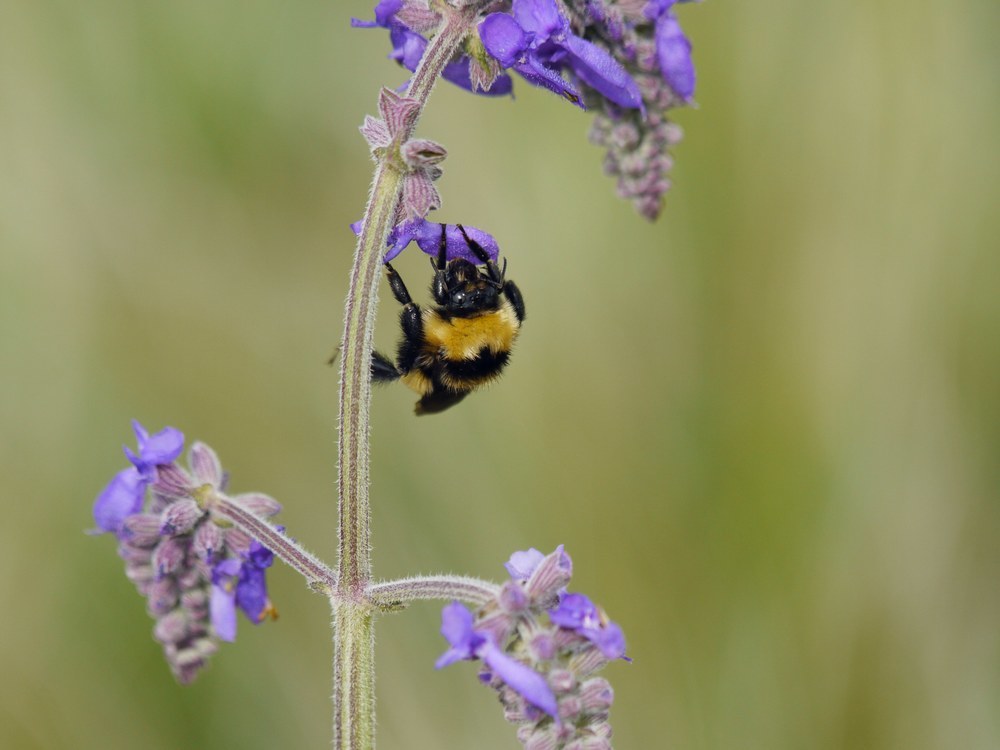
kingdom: Animalia
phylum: Arthropoda
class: Insecta
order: Hymenoptera
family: Apidae
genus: Bombus
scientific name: Bombus
